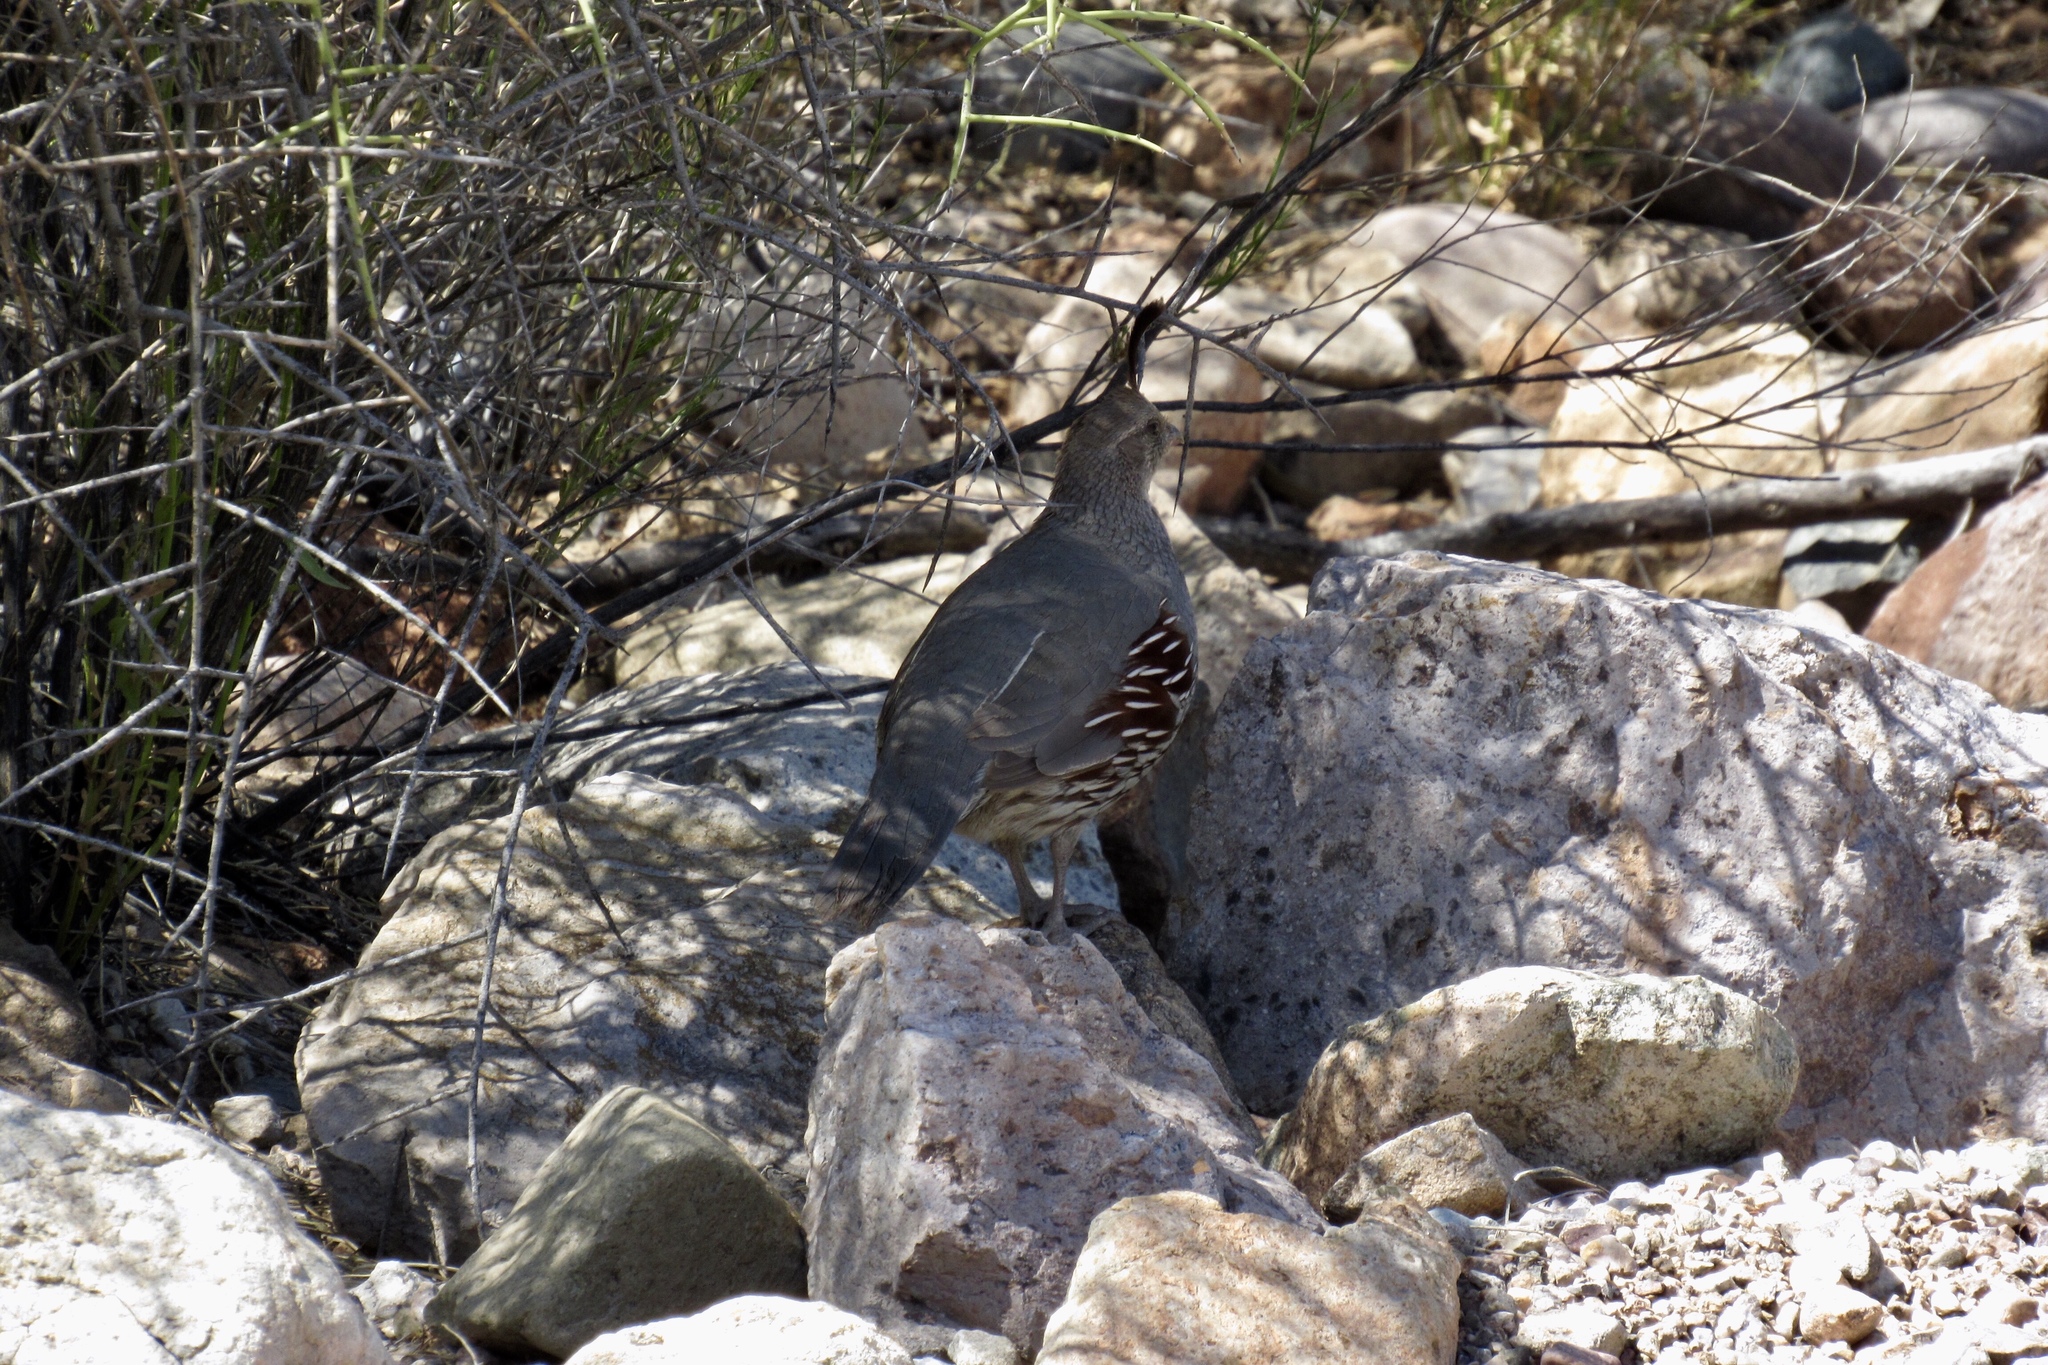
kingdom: Animalia
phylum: Chordata
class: Aves
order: Galliformes
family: Odontophoridae
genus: Callipepla
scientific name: Callipepla gambelii
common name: Gambel's quail
